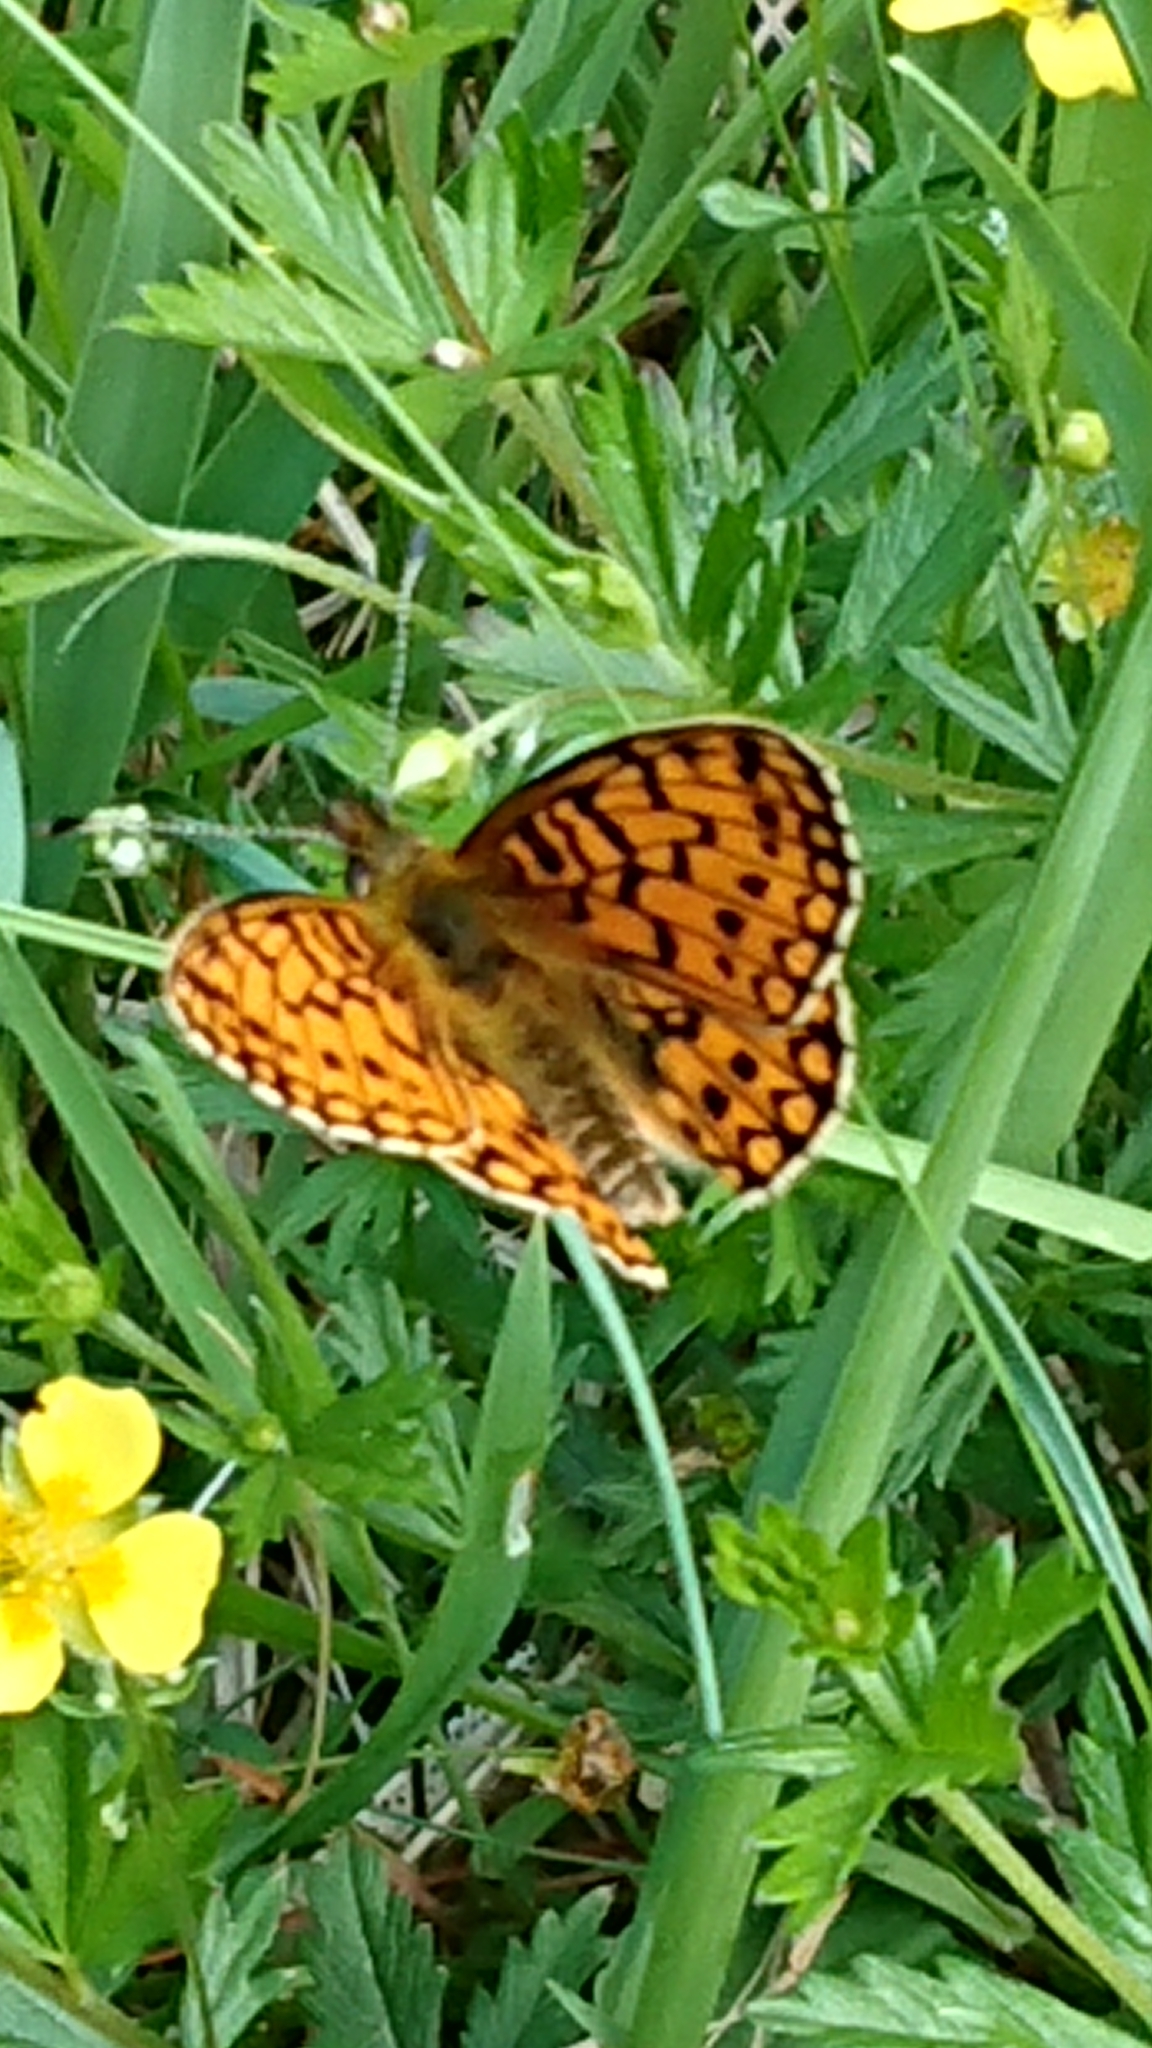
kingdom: Animalia
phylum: Arthropoda
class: Insecta
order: Lepidoptera
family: Nymphalidae
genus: Boloria
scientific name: Boloria selene
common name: Small pearl-bordered fritillary
